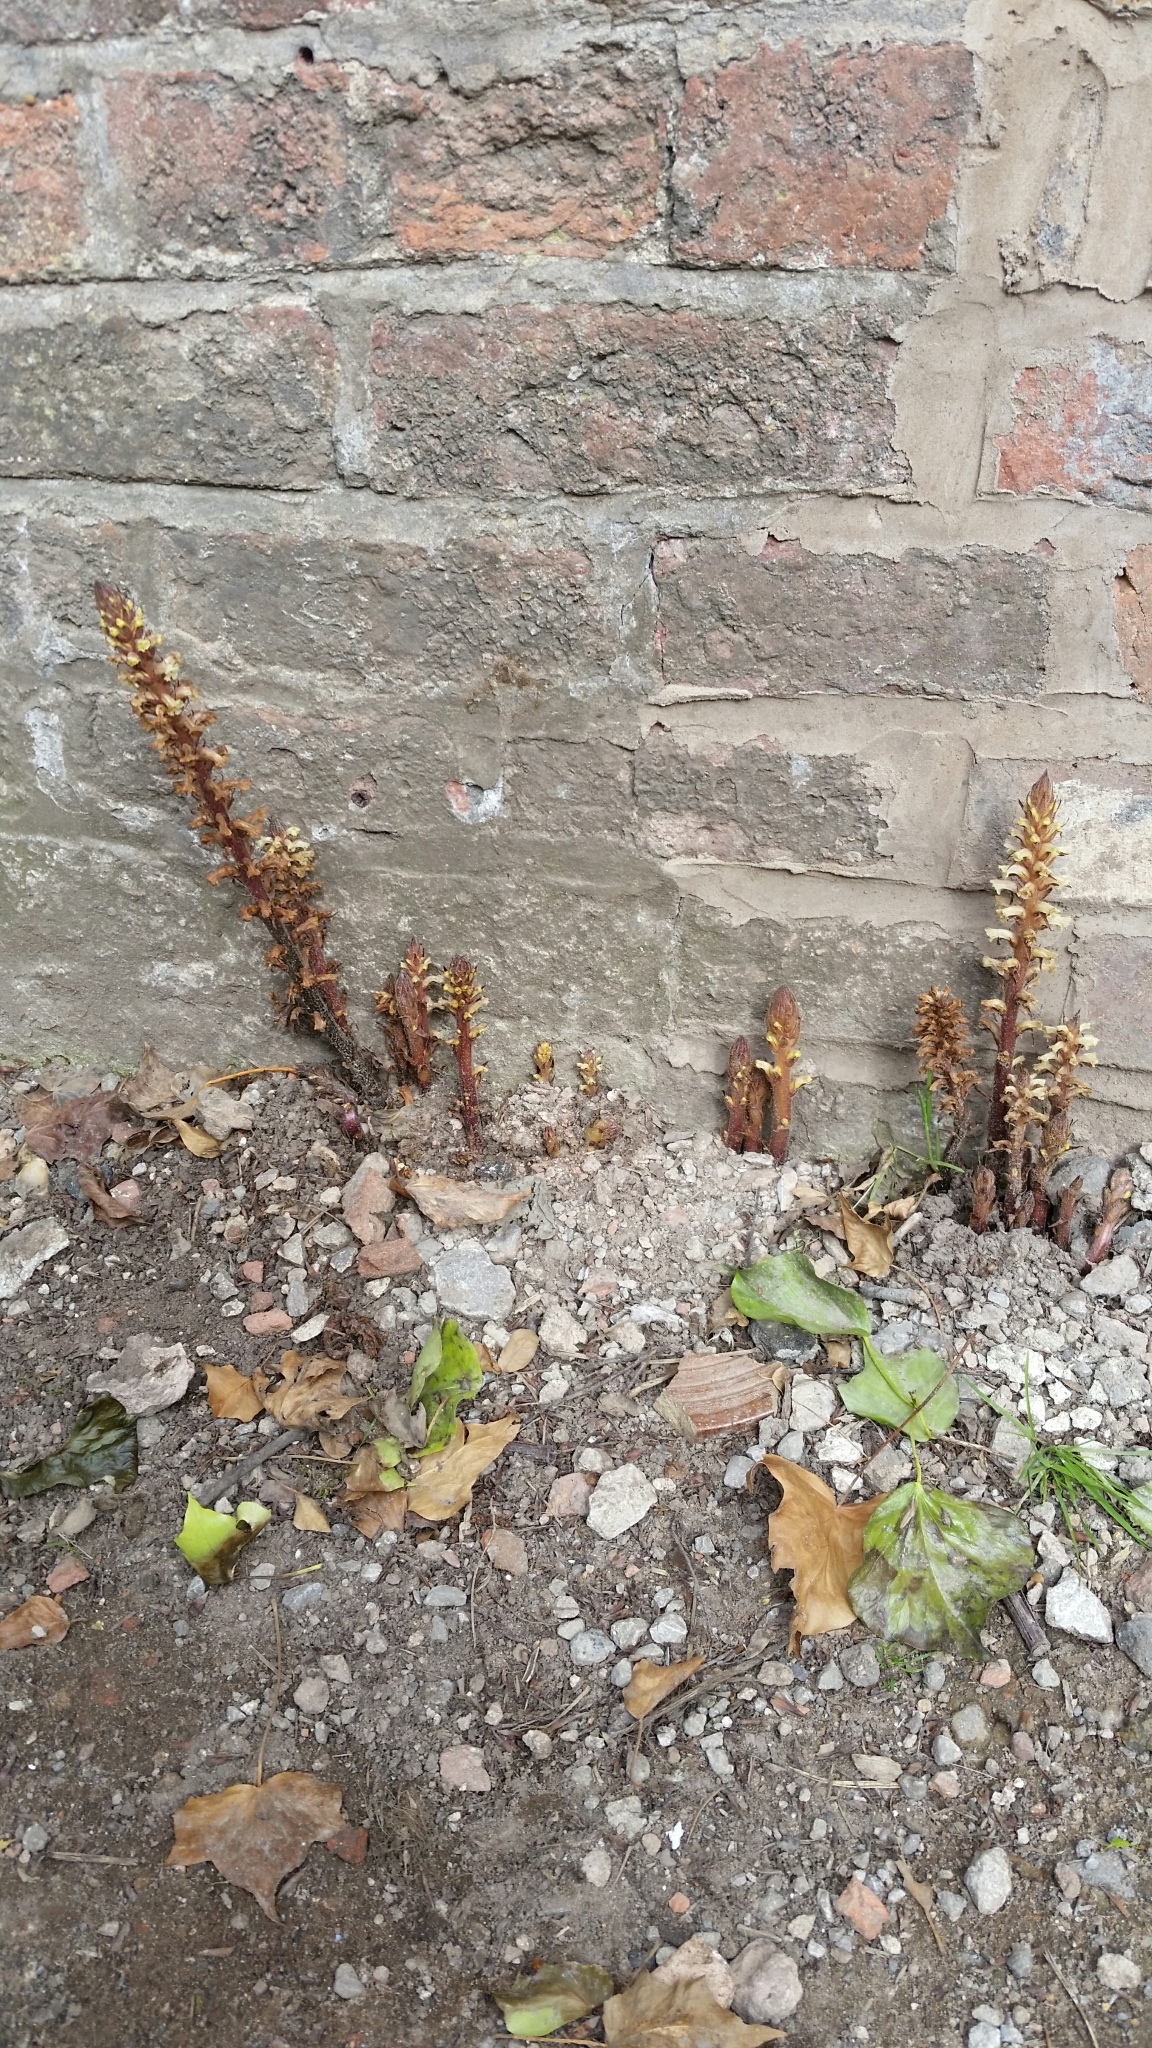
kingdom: Plantae
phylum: Tracheophyta
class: Magnoliopsida
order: Lamiales
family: Orobanchaceae
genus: Orobanche
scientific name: Orobanche hederae
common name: Ivy broomrape
